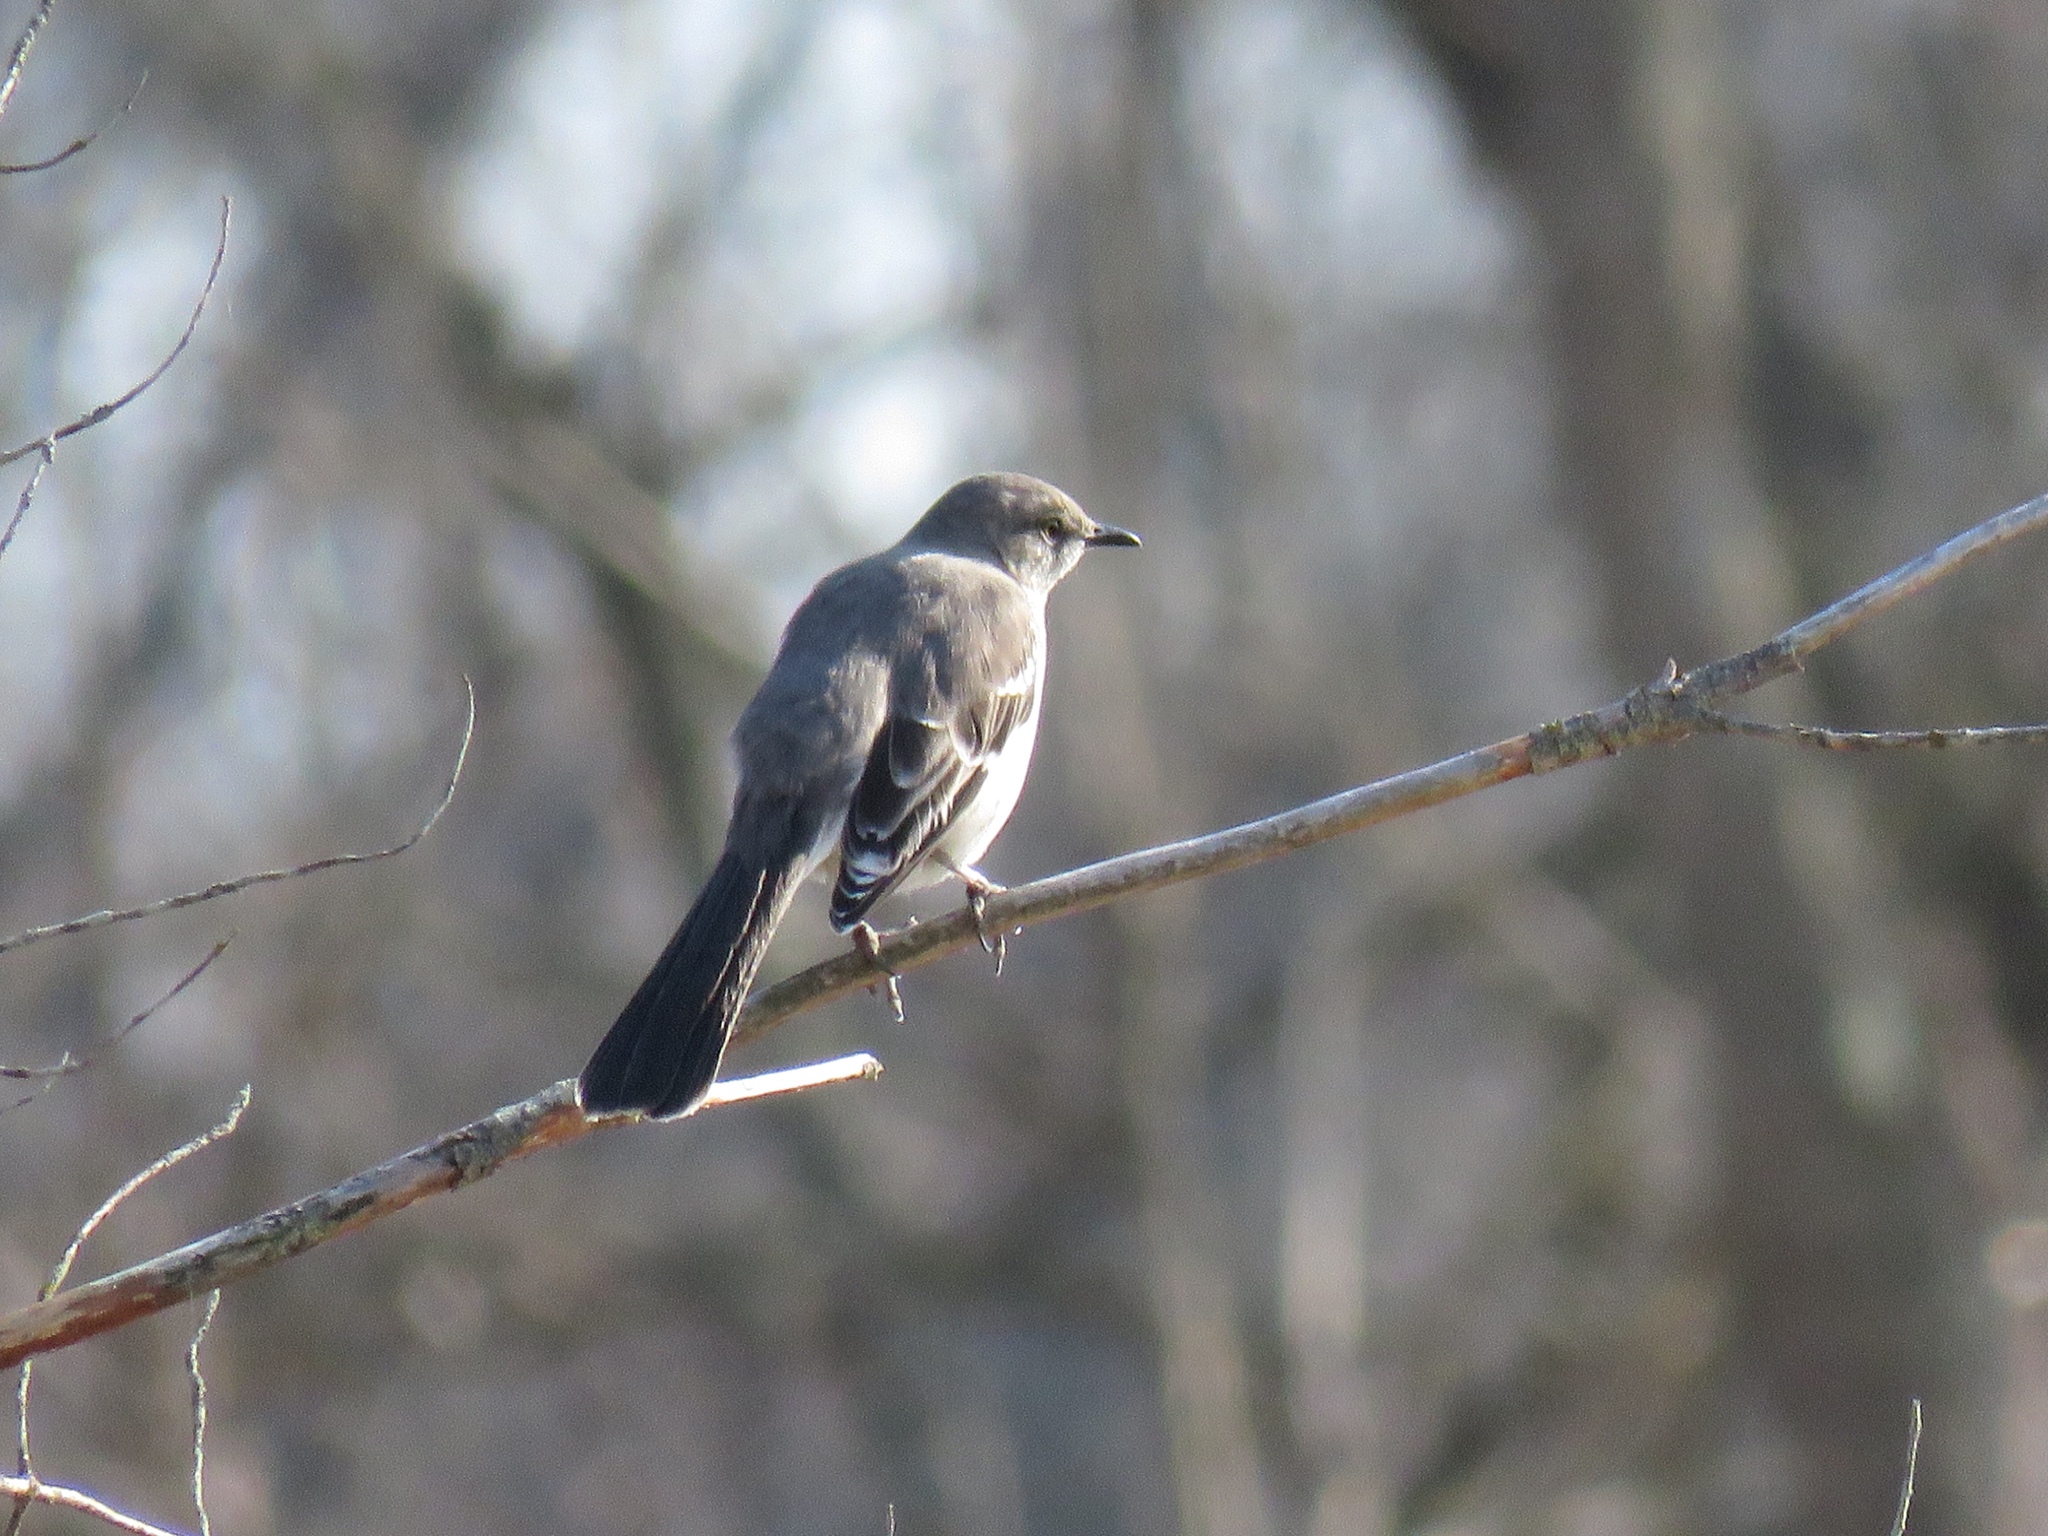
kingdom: Animalia
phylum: Chordata
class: Aves
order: Passeriformes
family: Mimidae
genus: Mimus
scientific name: Mimus polyglottos
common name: Northern mockingbird
